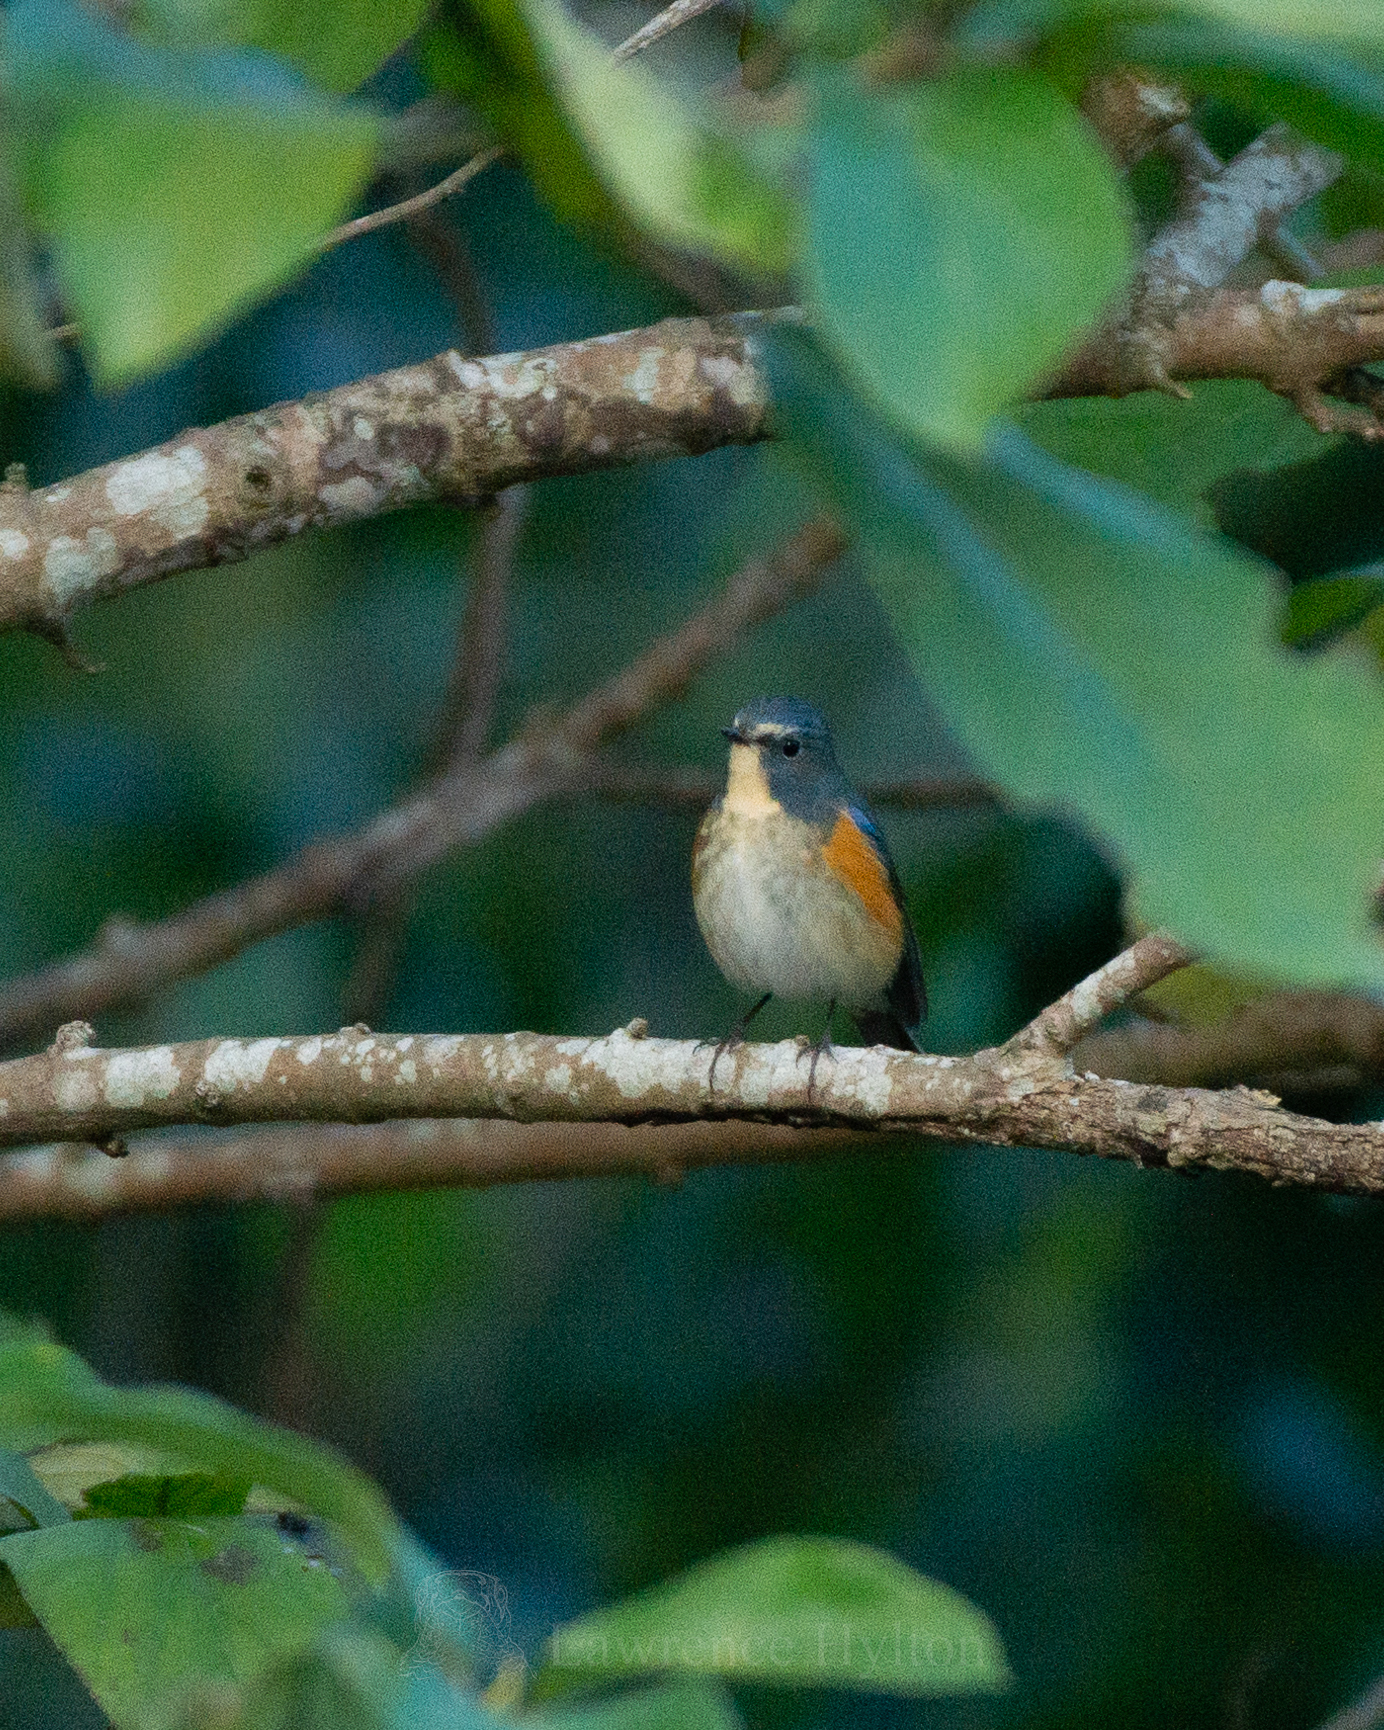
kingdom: Animalia
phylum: Chordata
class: Aves
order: Passeriformes
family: Muscicapidae
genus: Tarsiger
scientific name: Tarsiger cyanurus
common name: Red-flanked bluetail
